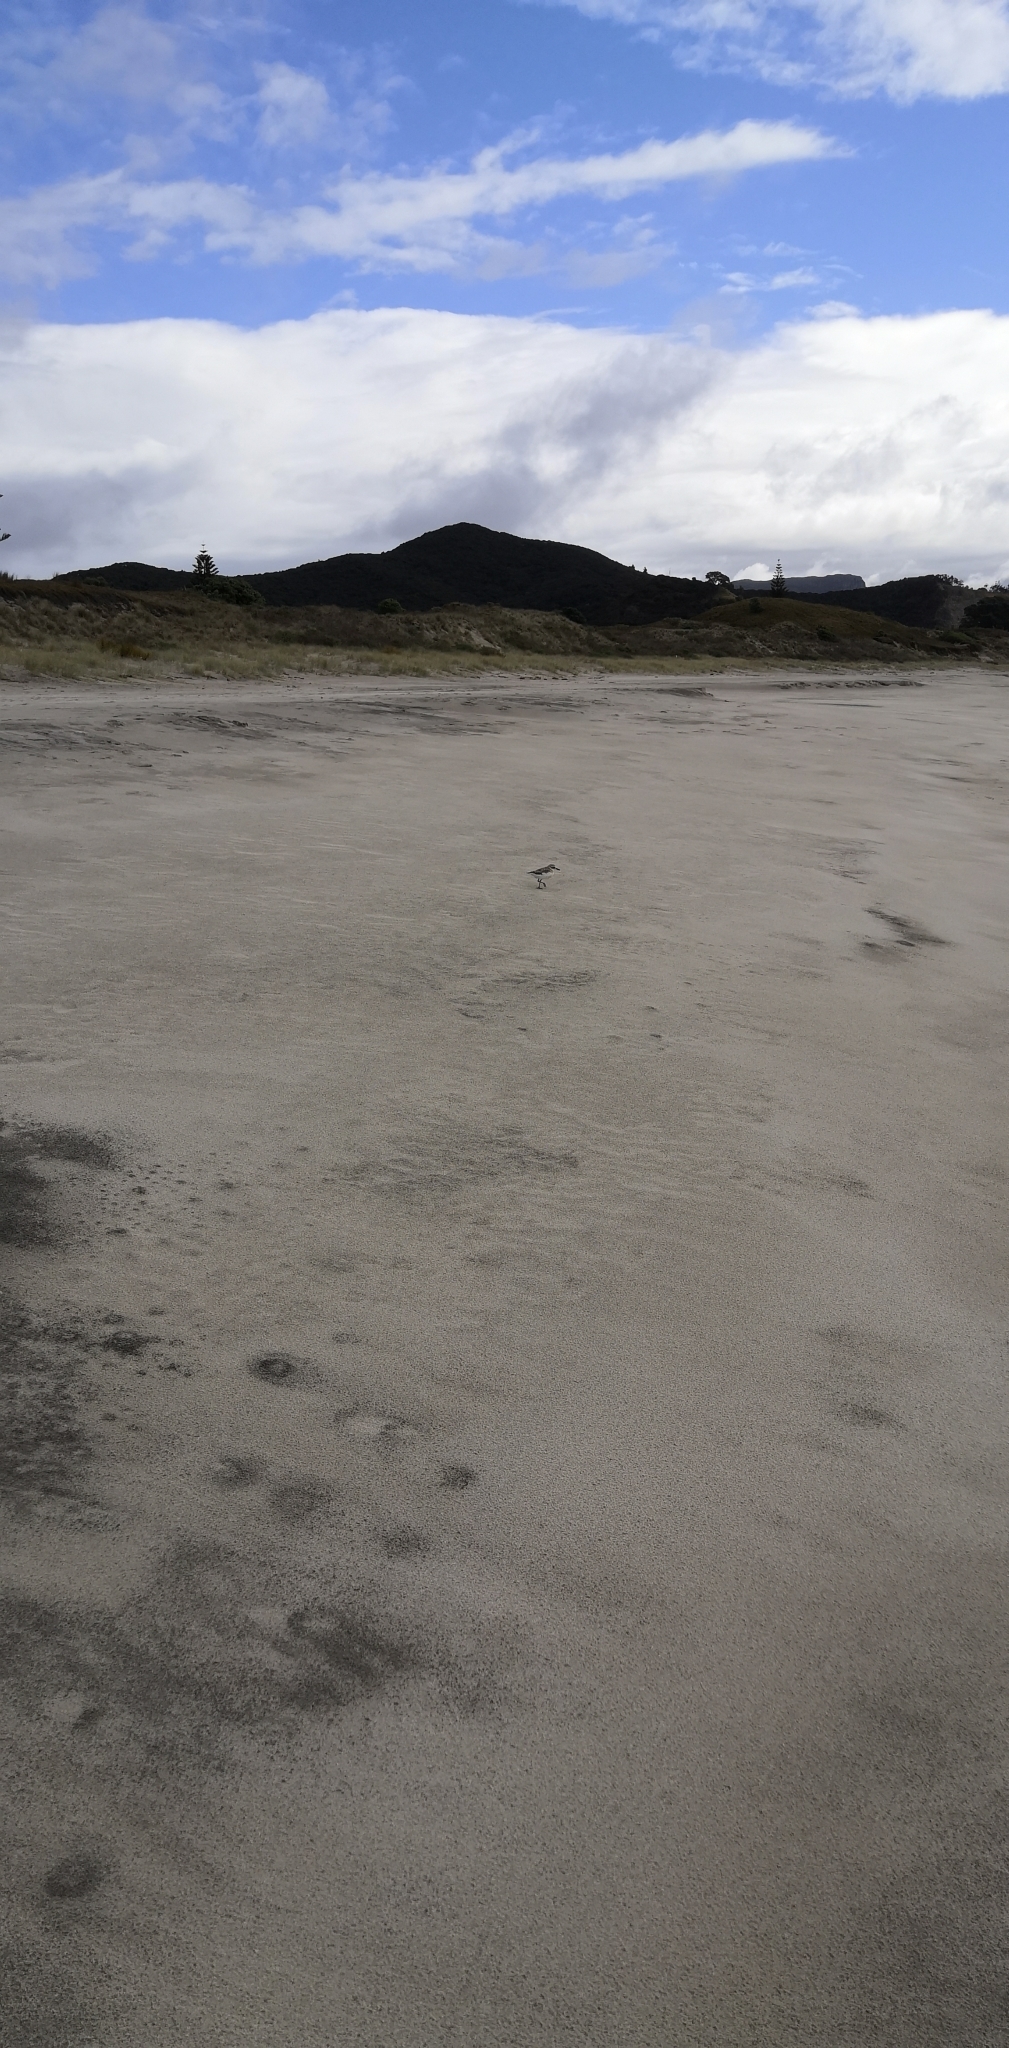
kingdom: Animalia
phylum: Chordata
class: Aves
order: Charadriiformes
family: Charadriidae
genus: Anarhynchus
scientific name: Anarhynchus
